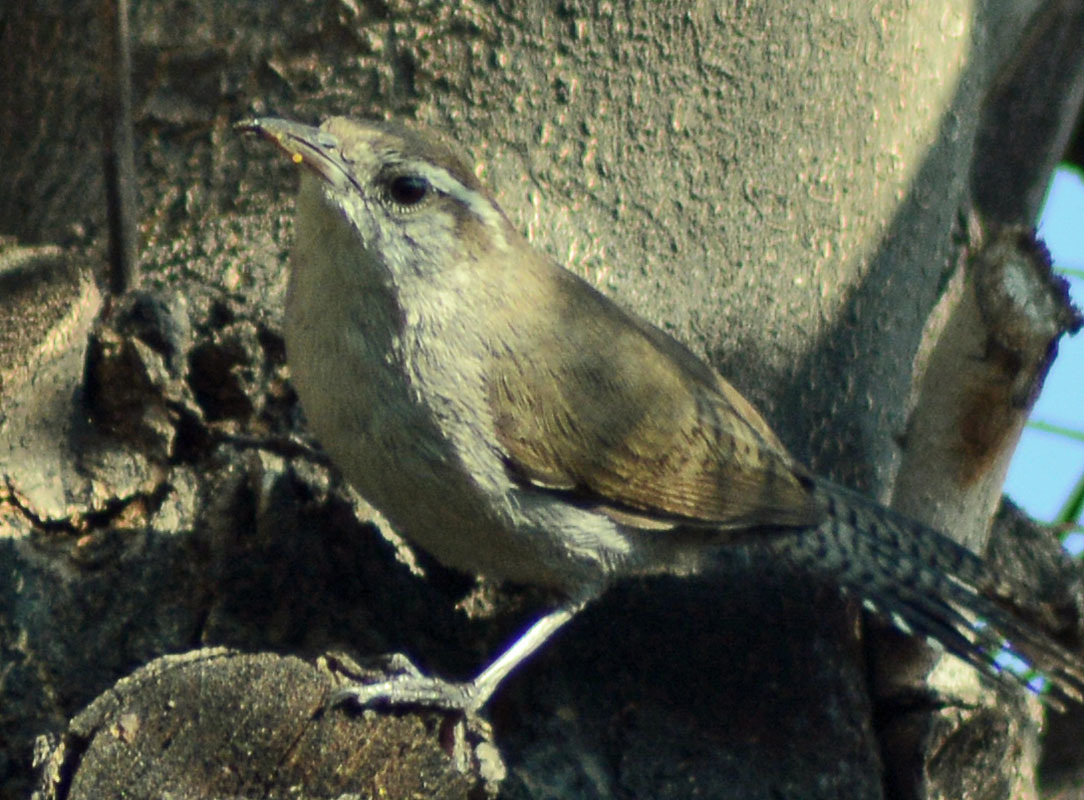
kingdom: Animalia
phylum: Chordata
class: Aves
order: Passeriformes
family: Troglodytidae
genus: Thryomanes
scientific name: Thryomanes bewickii
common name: Bewick's wren
